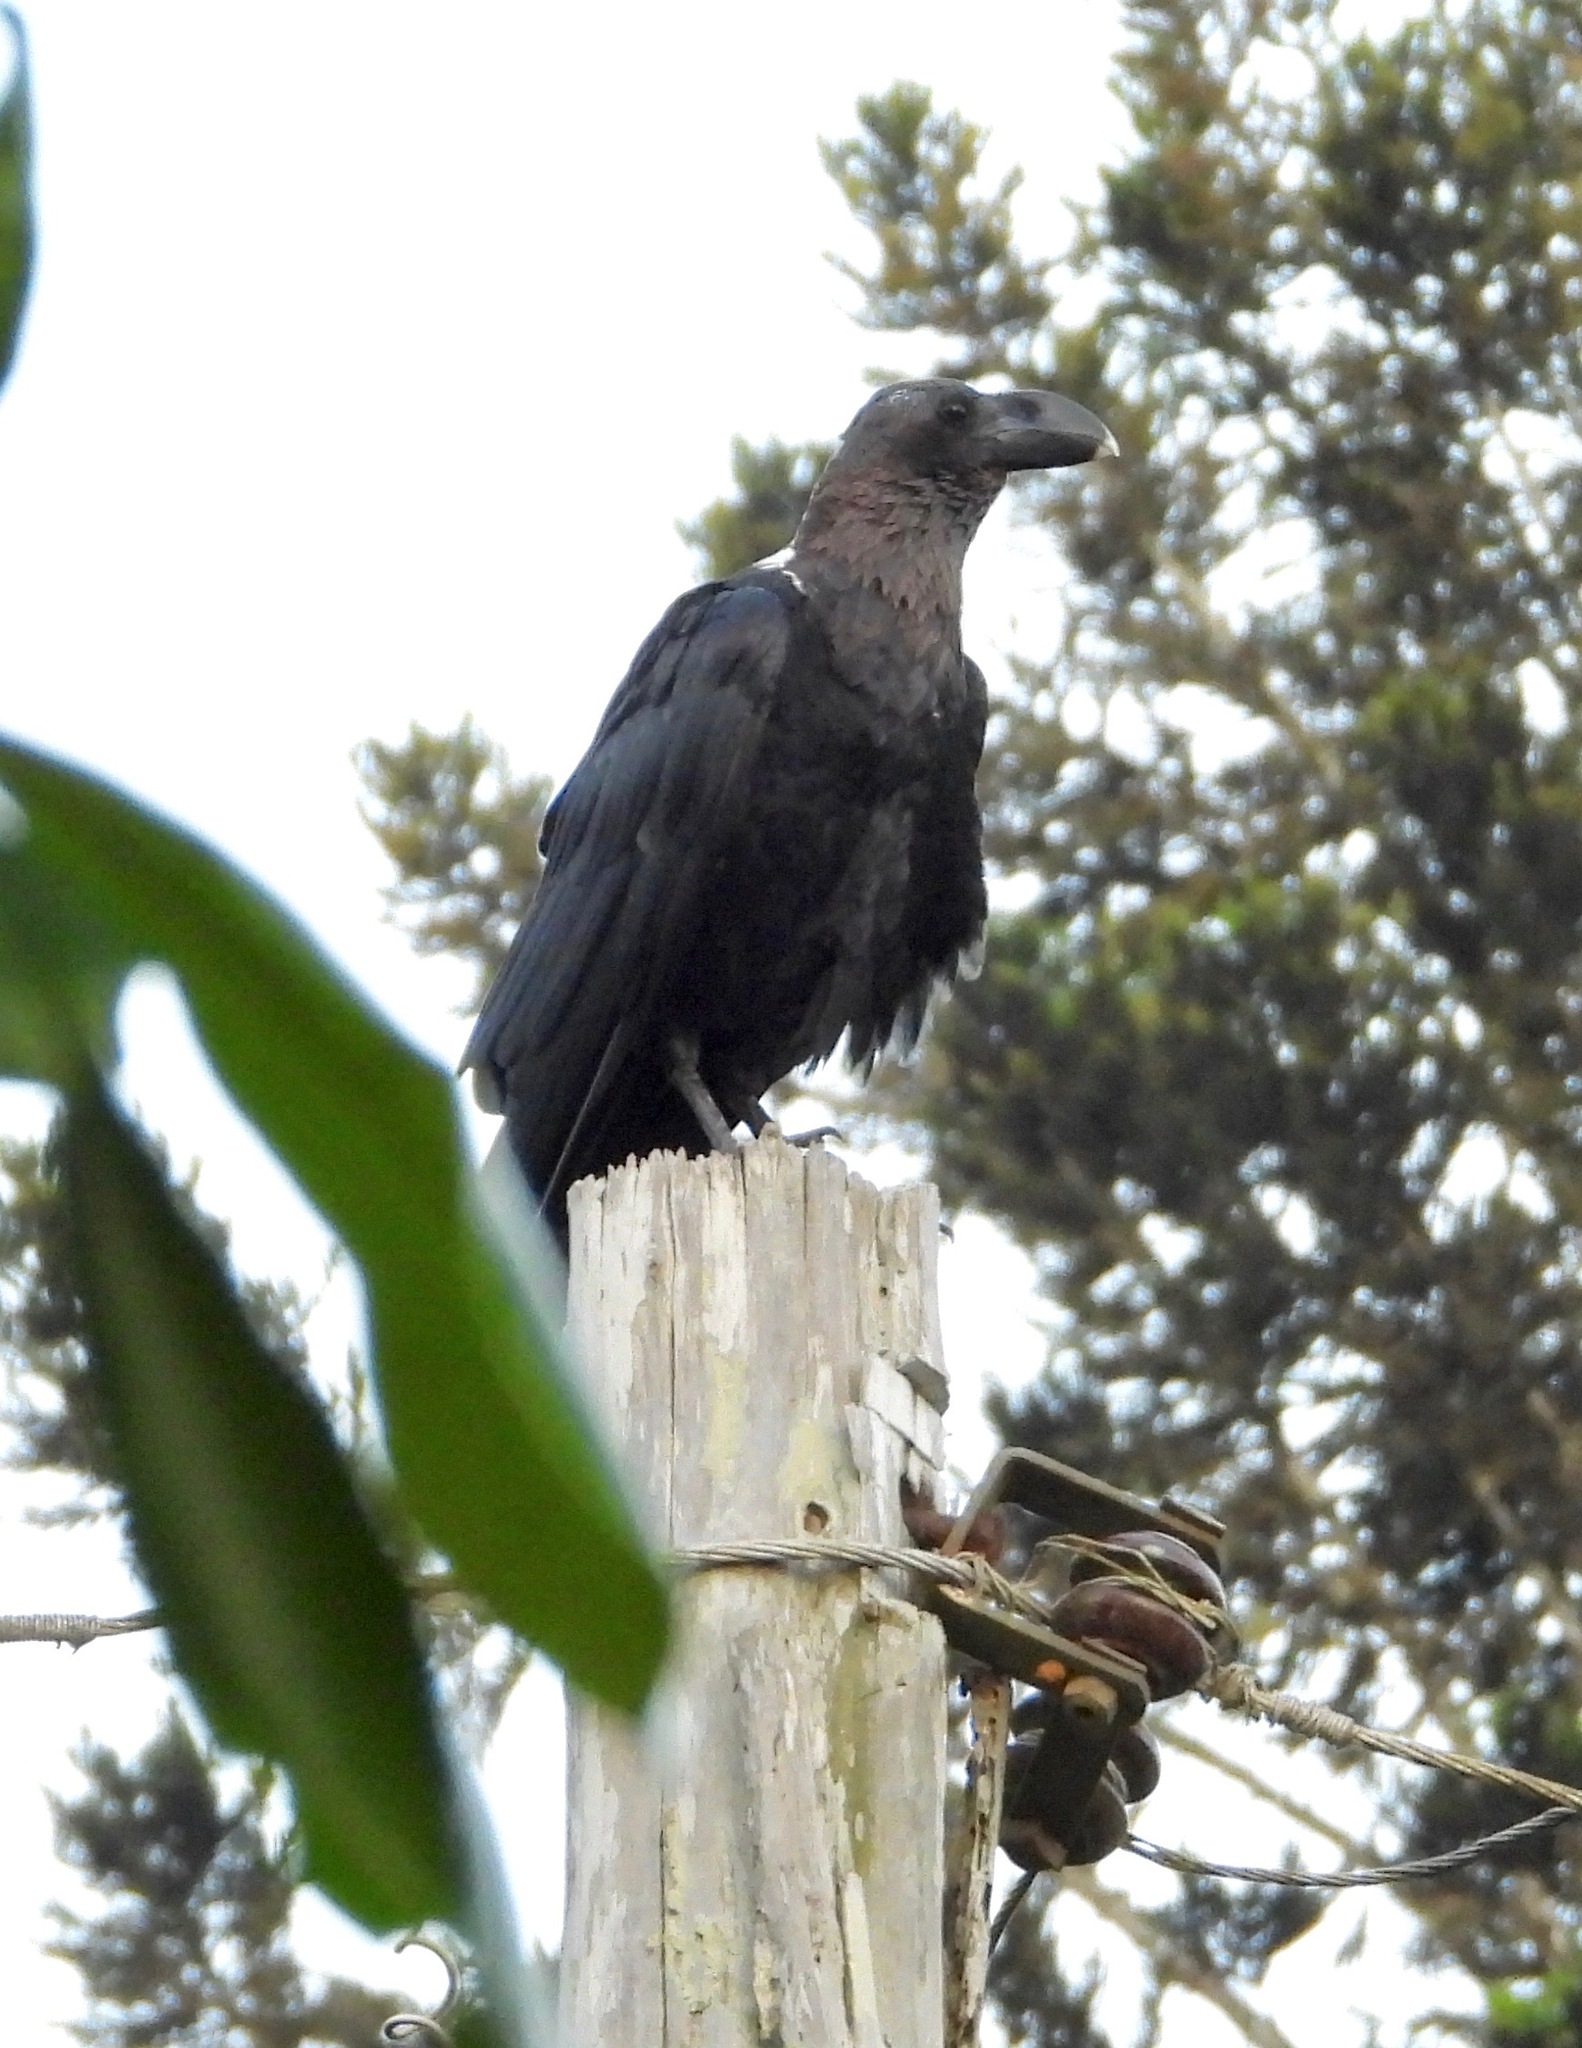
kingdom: Animalia
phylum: Chordata
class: Aves
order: Passeriformes
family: Corvidae
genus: Corvus
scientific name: Corvus albicollis
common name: White-necked raven
